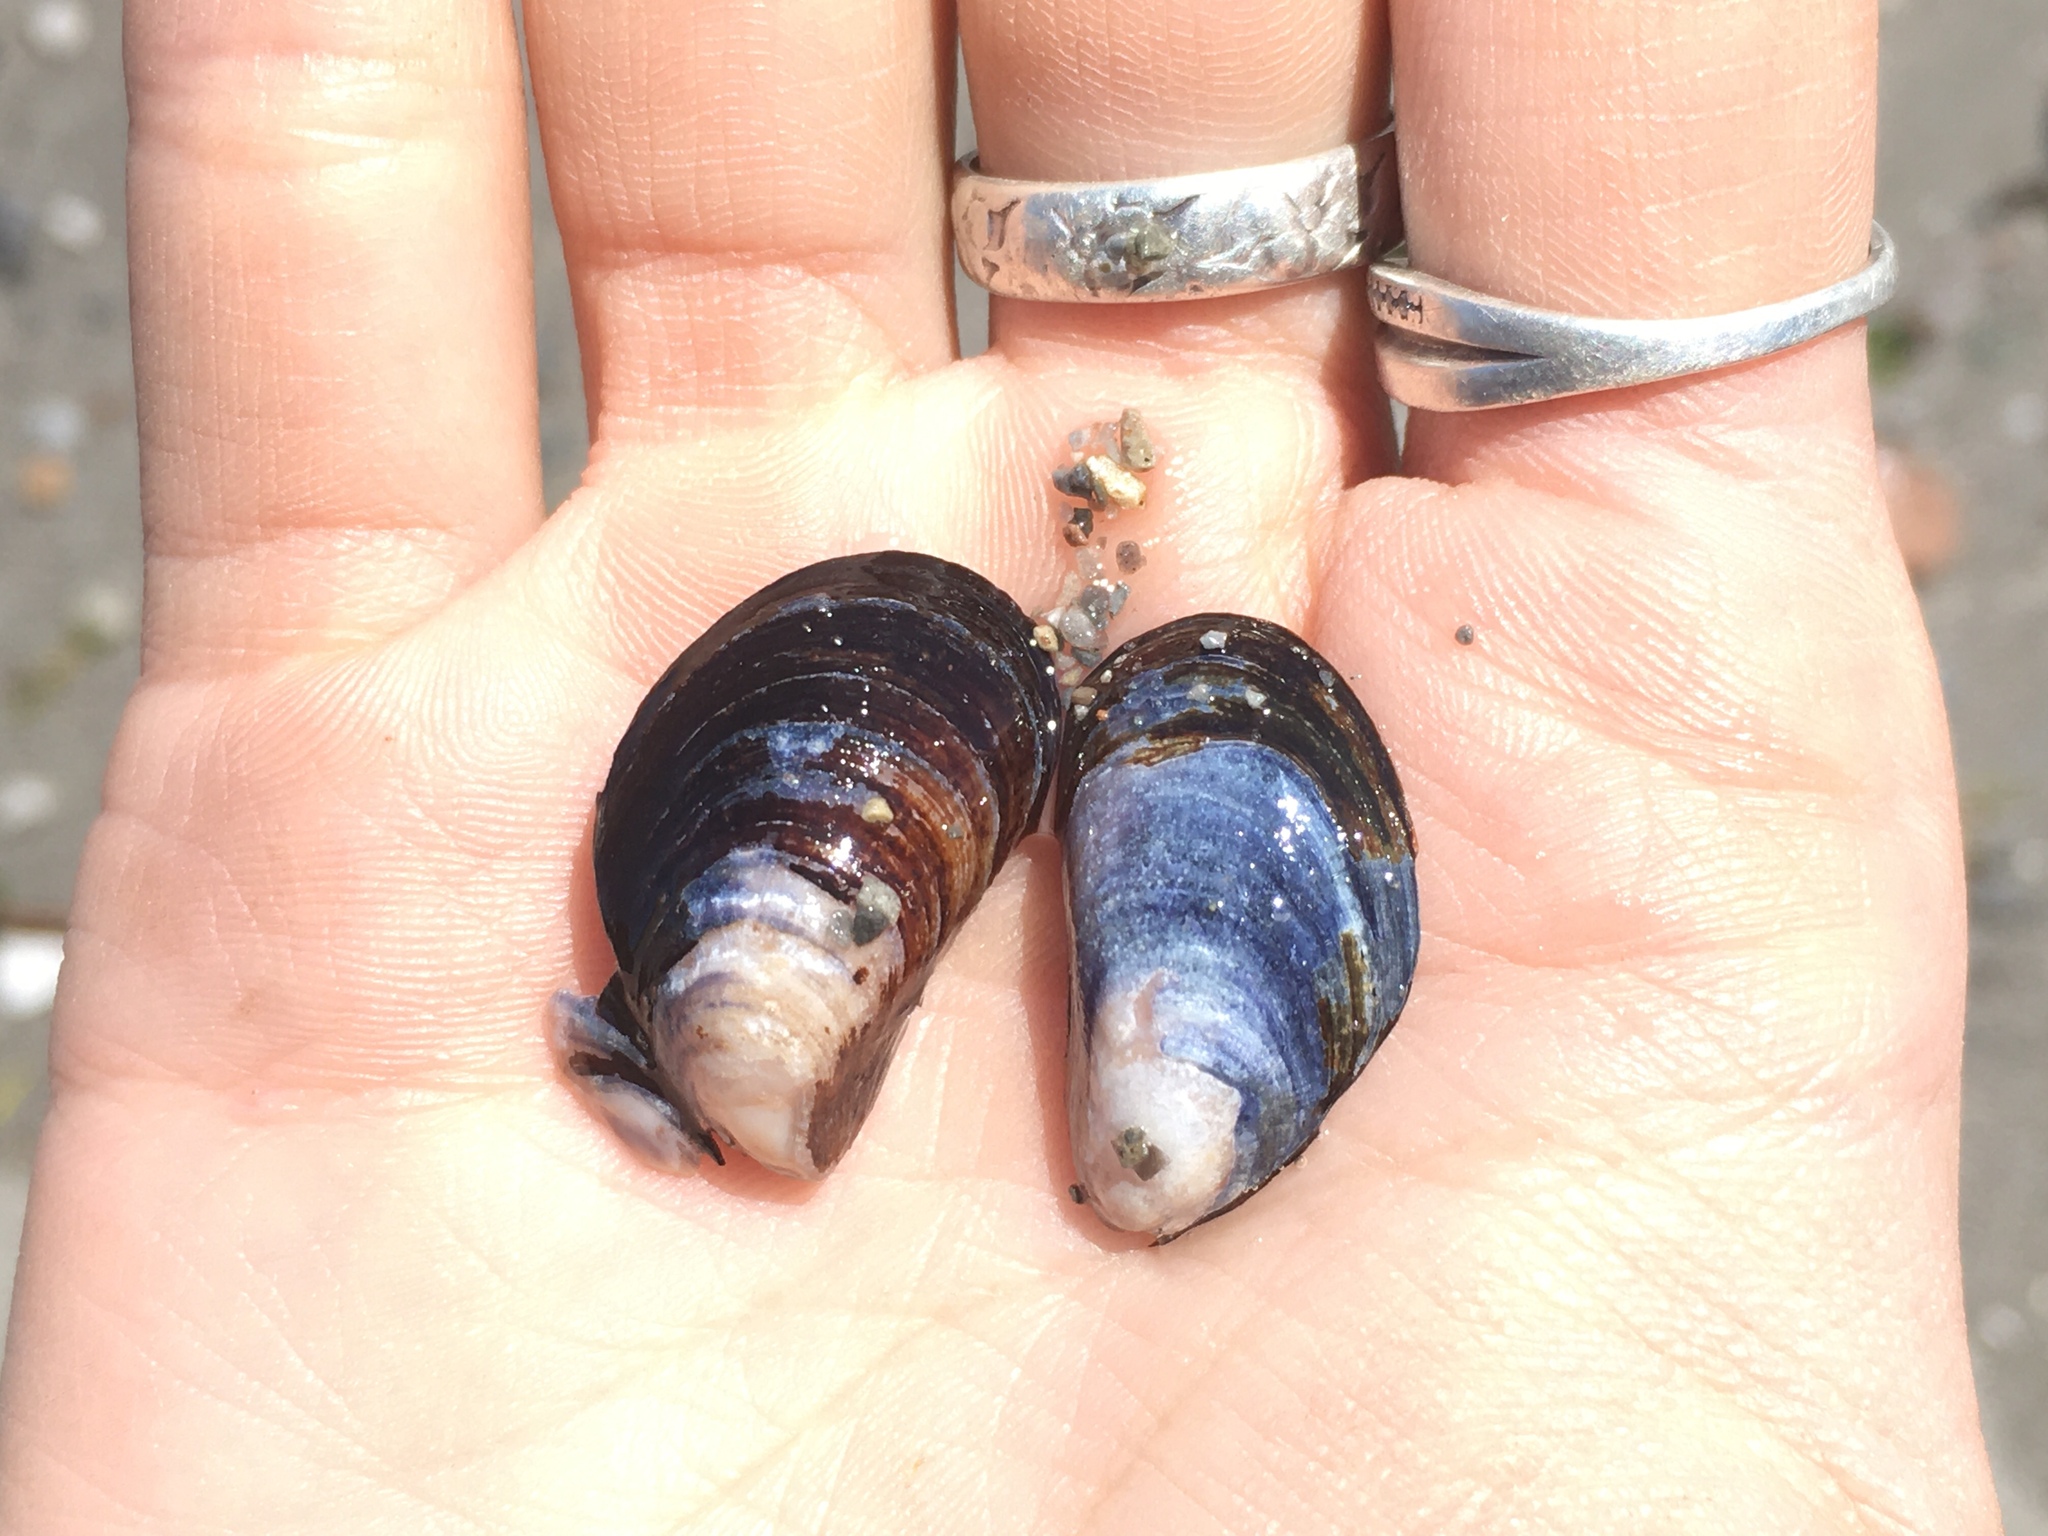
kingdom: Animalia
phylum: Mollusca
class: Bivalvia
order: Mytilida
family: Mytilidae
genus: Mytilus
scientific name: Mytilus chilensis
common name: Chilean mussel
